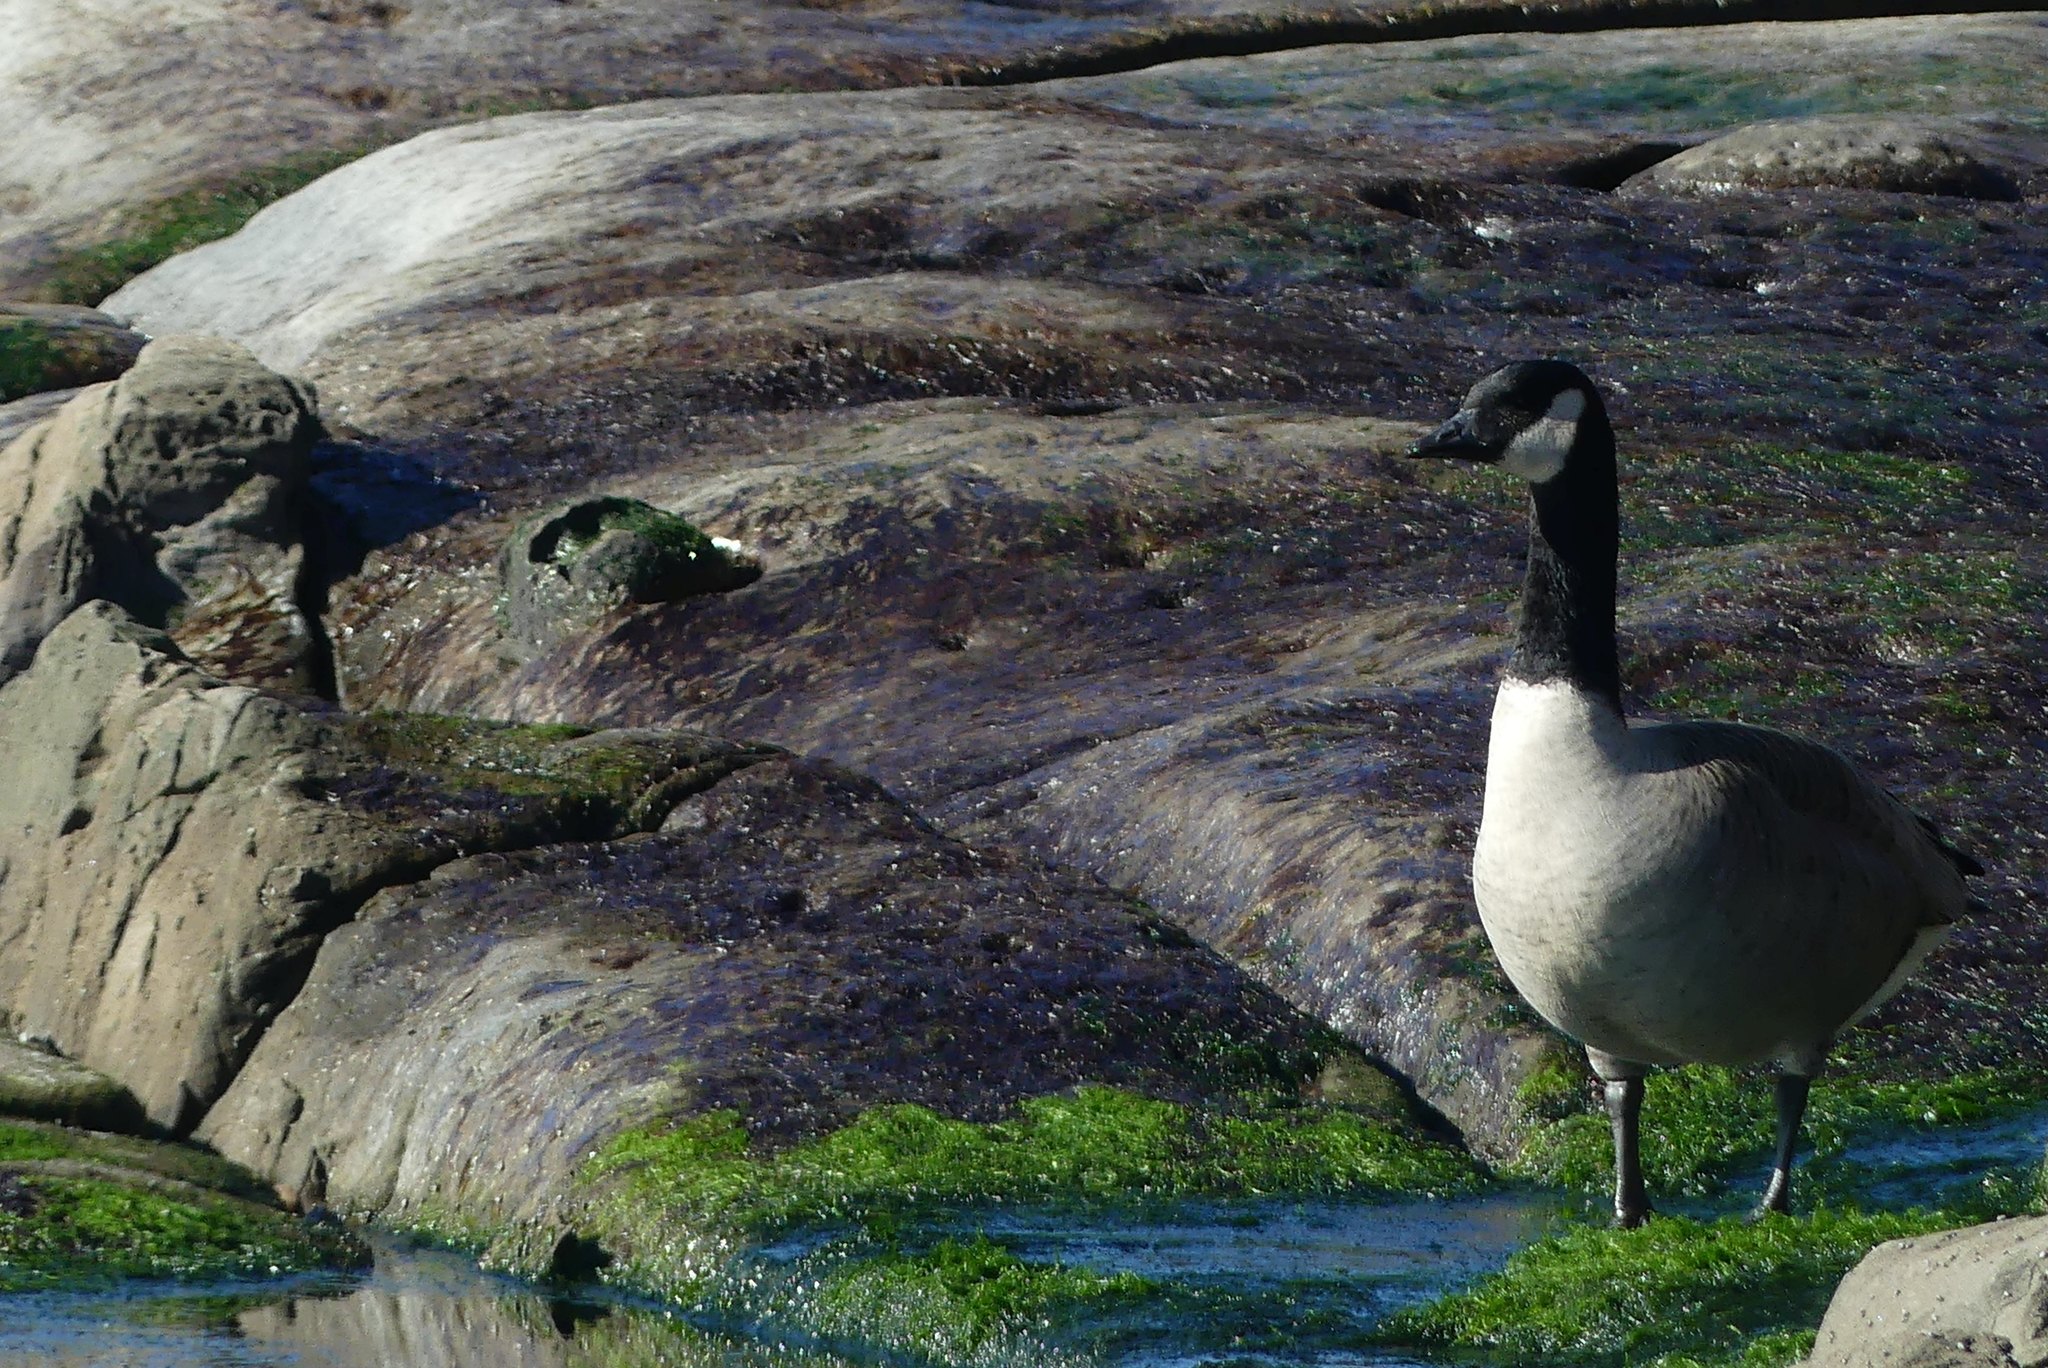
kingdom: Animalia
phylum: Chordata
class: Aves
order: Anseriformes
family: Anatidae
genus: Branta
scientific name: Branta canadensis
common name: Canada goose
